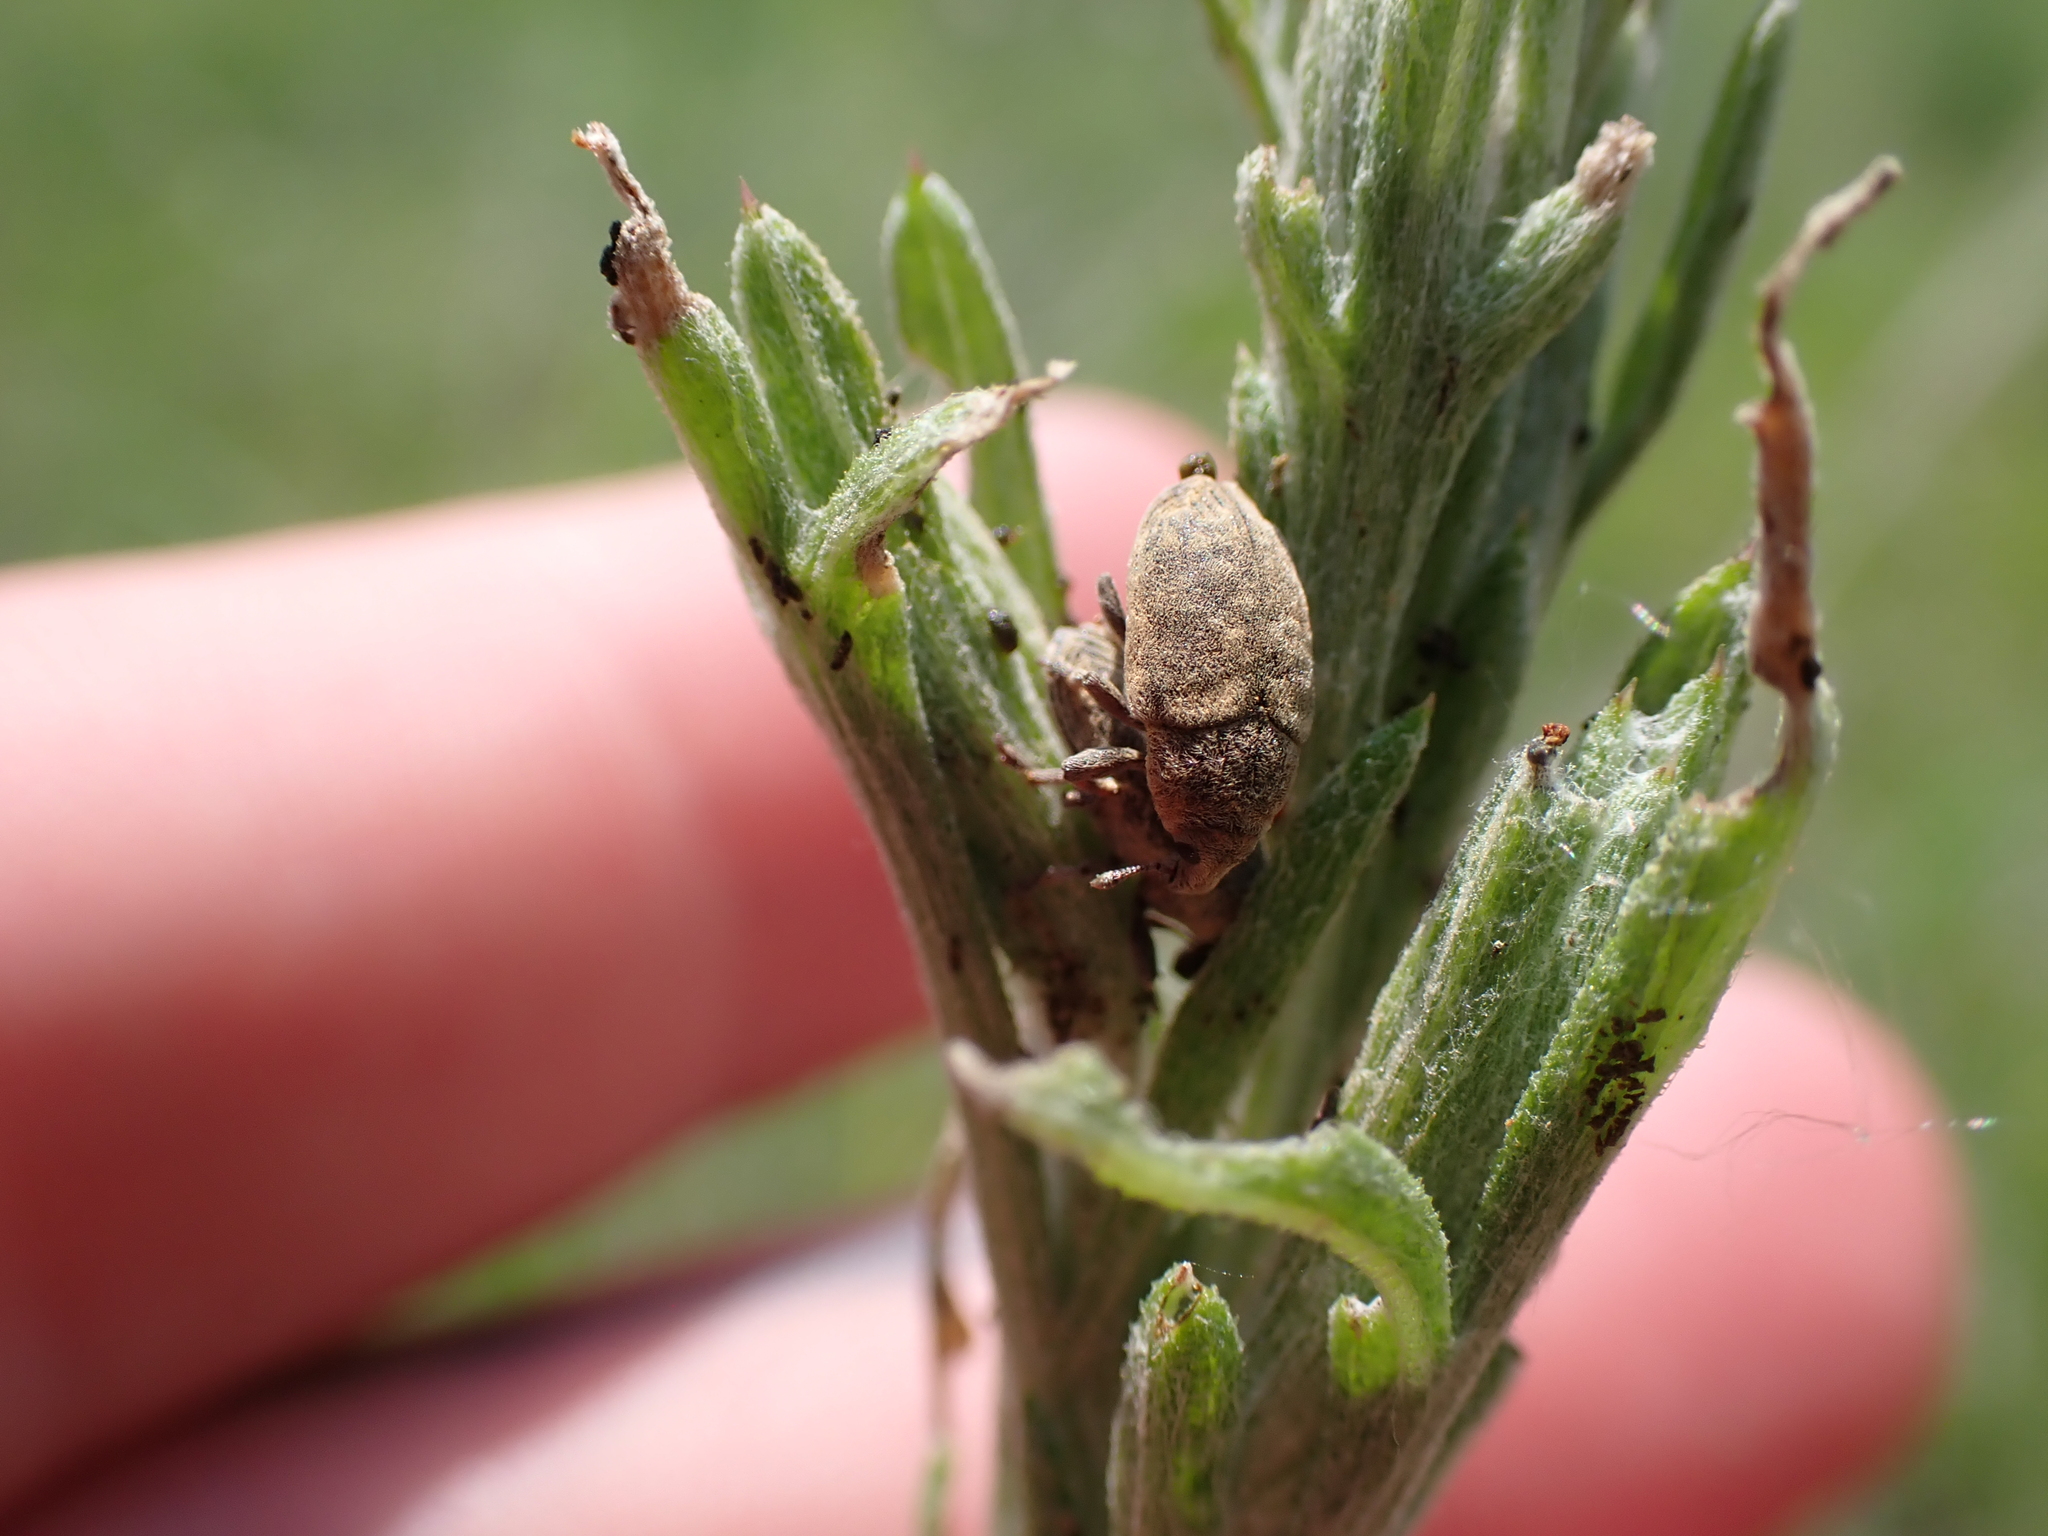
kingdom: Animalia
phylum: Arthropoda
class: Insecta
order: Coleoptera
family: Curculionidae
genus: Larinus
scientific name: Larinus minutus
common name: Weevil
